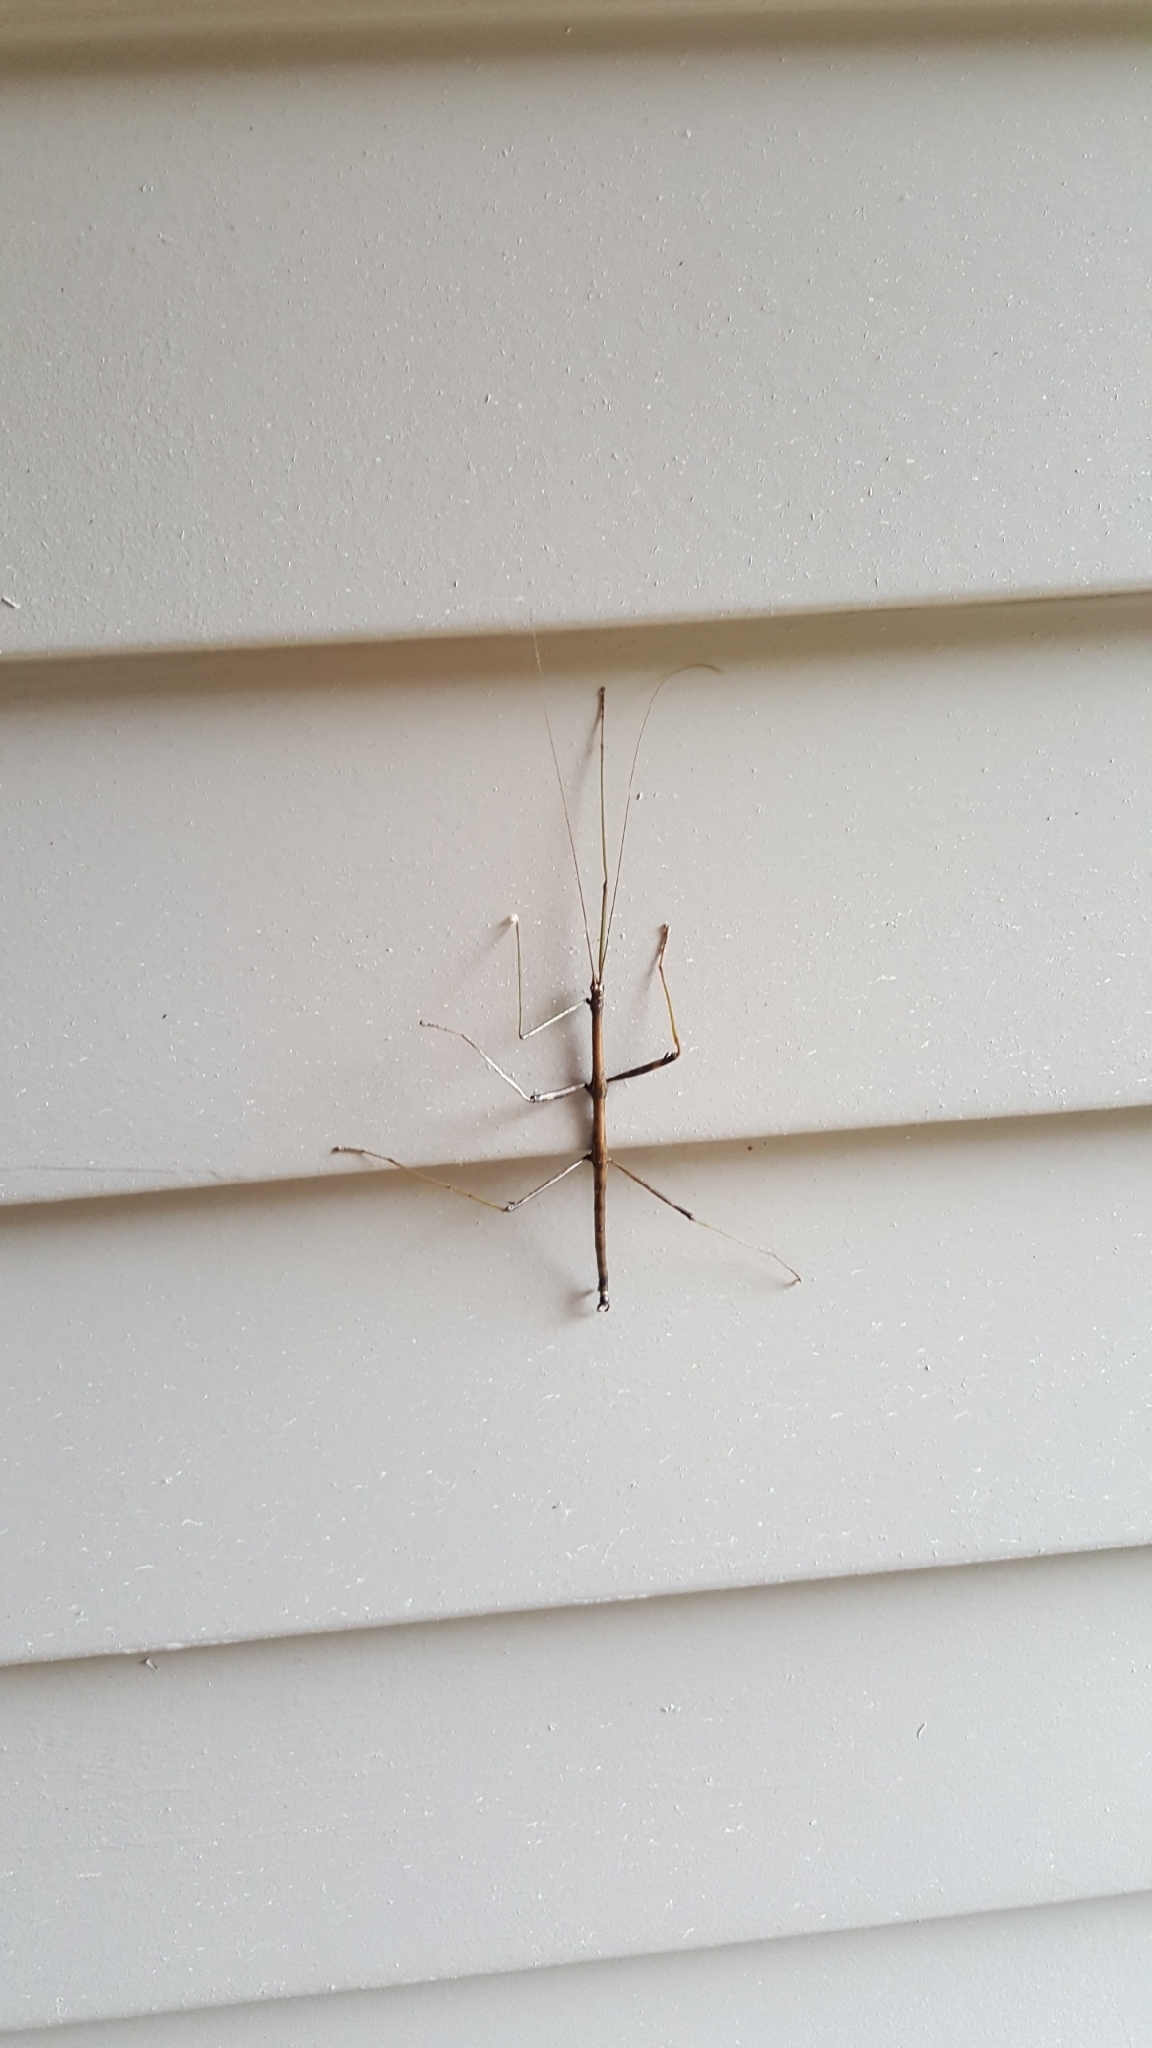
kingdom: Animalia
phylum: Arthropoda
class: Insecta
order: Phasmida
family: Diapheromeridae
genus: Diapheromera
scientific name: Diapheromera femorata
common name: Common american walkingstick
